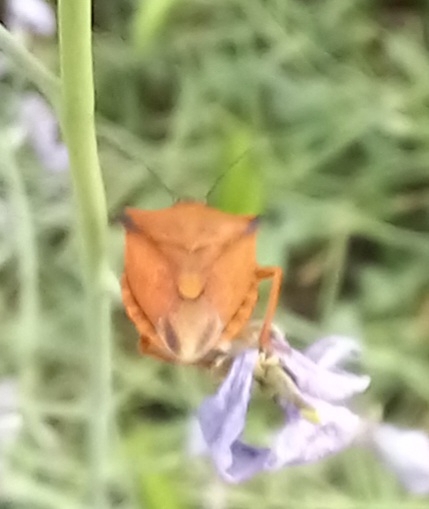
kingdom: Animalia
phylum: Arthropoda
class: Insecta
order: Hemiptera
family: Pentatomidae
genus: Carpocoris
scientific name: Carpocoris mediterraneus
